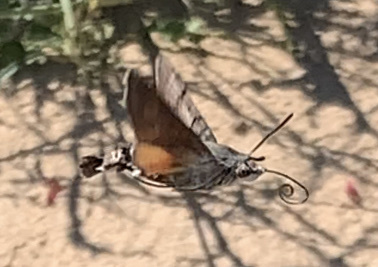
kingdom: Animalia
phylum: Arthropoda
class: Insecta
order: Lepidoptera
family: Sphingidae
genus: Macroglossum
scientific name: Macroglossum stellatarum
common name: Humming-bird hawk-moth
